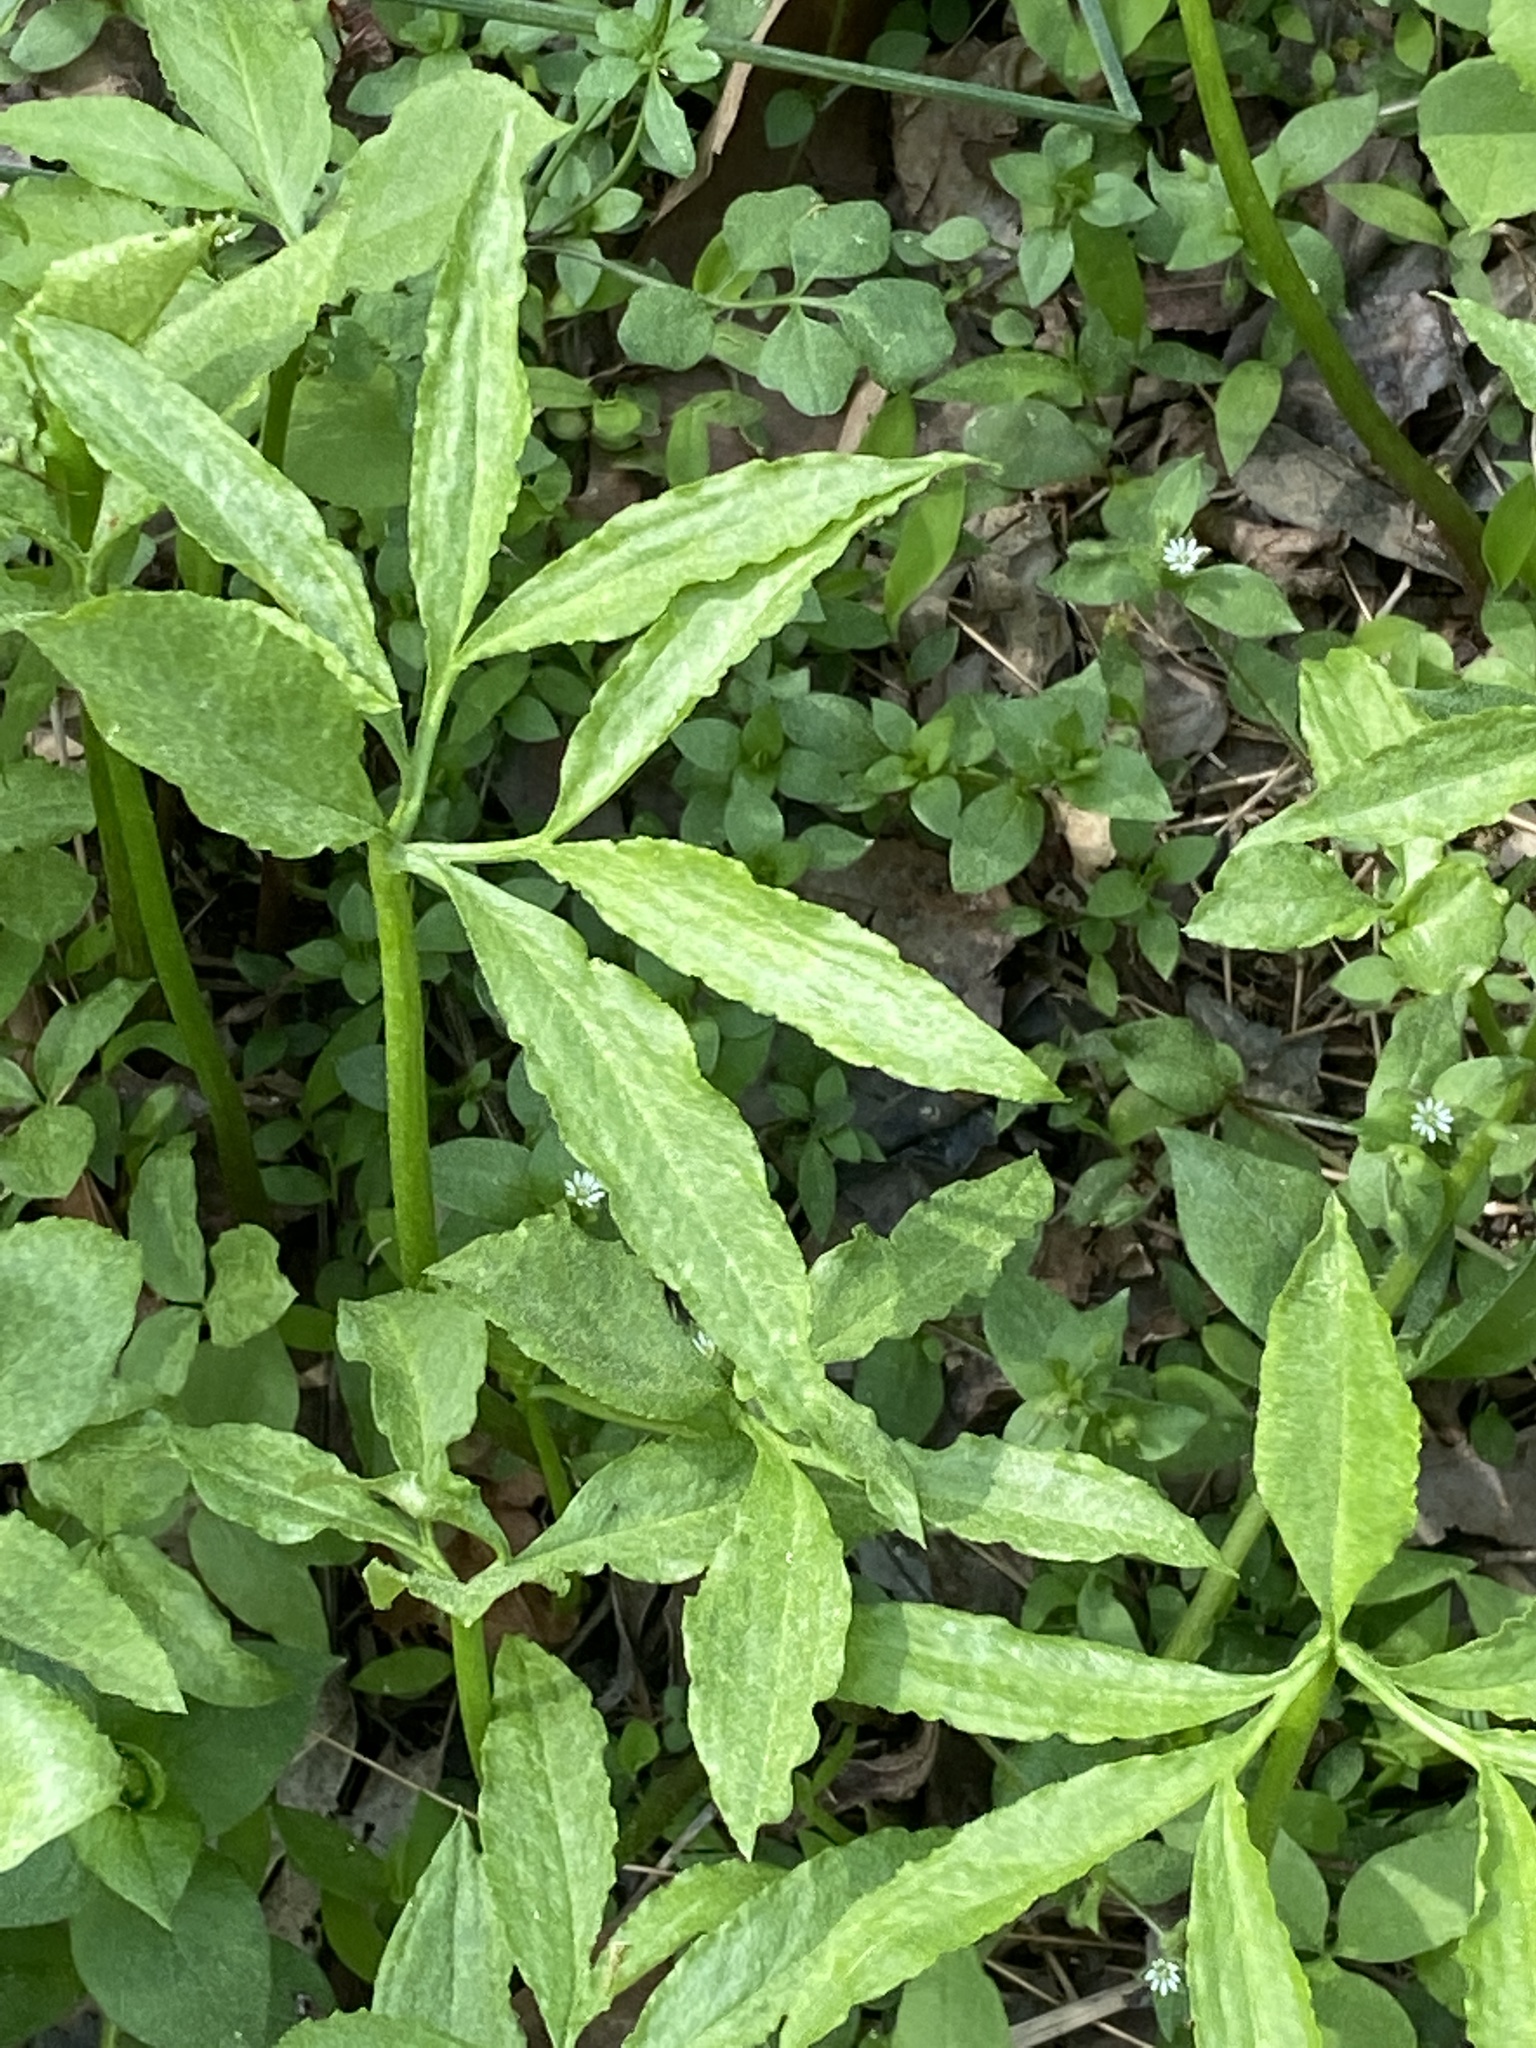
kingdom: Plantae
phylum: Tracheophyta
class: Liliopsida
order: Alismatales
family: Araceae
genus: Arisaema
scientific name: Arisaema dracontium
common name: Dragon-arum
